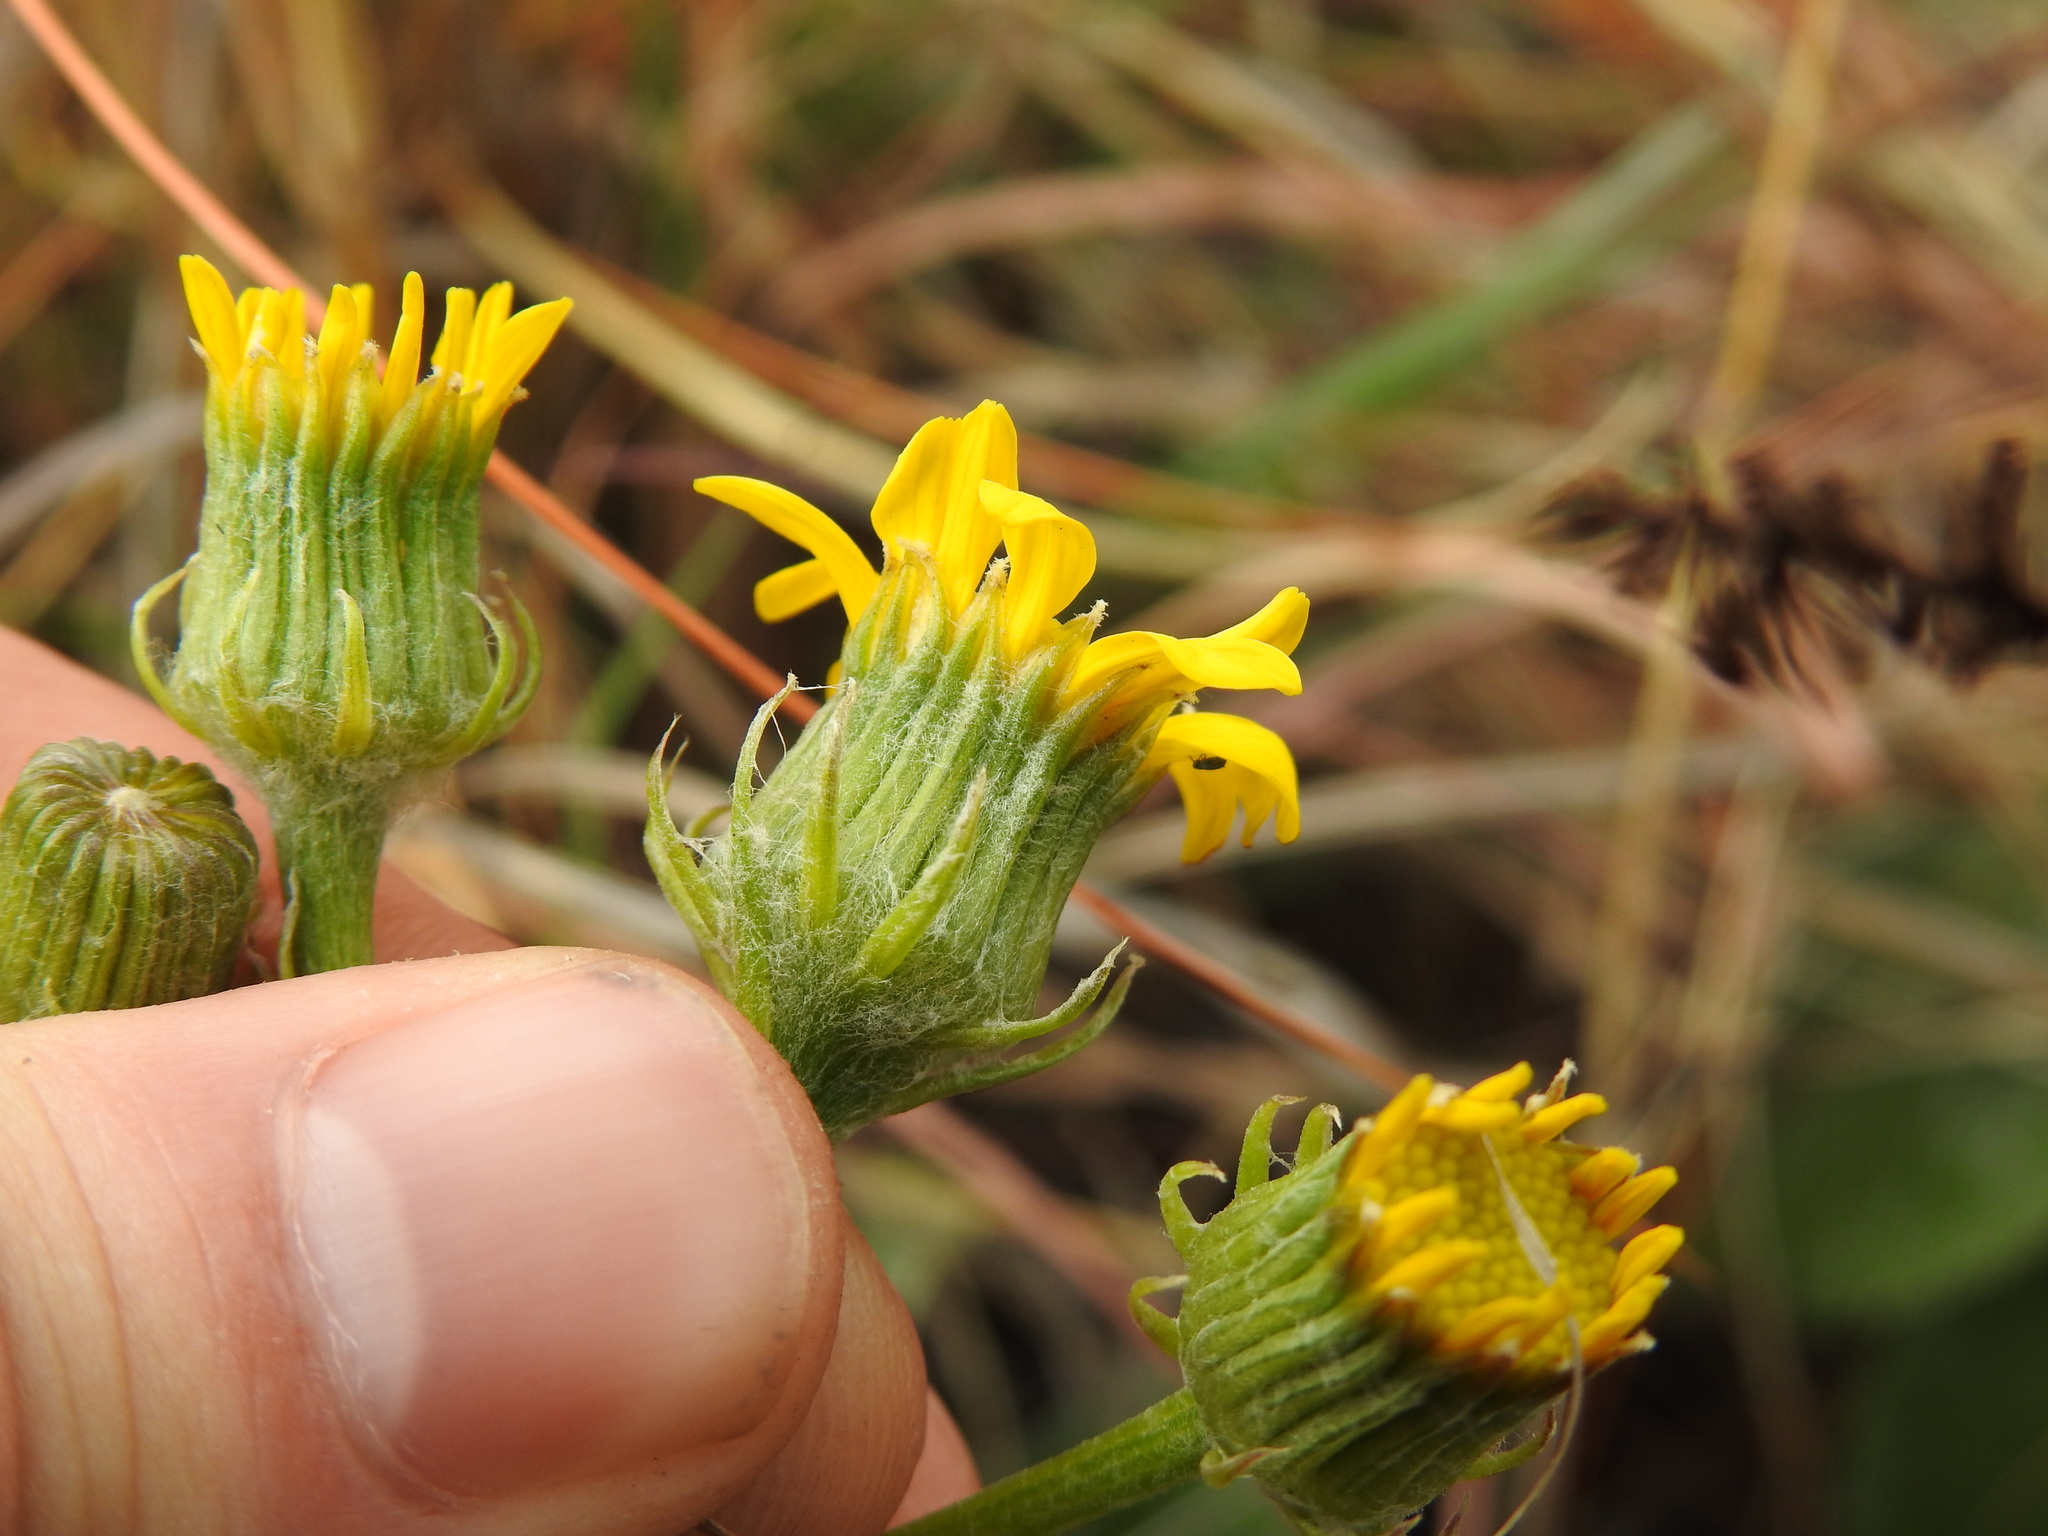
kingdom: Plantae
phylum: Tracheophyta
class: Magnoliopsida
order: Asterales
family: Asteraceae
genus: Senecio
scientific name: Senecio coronatus
